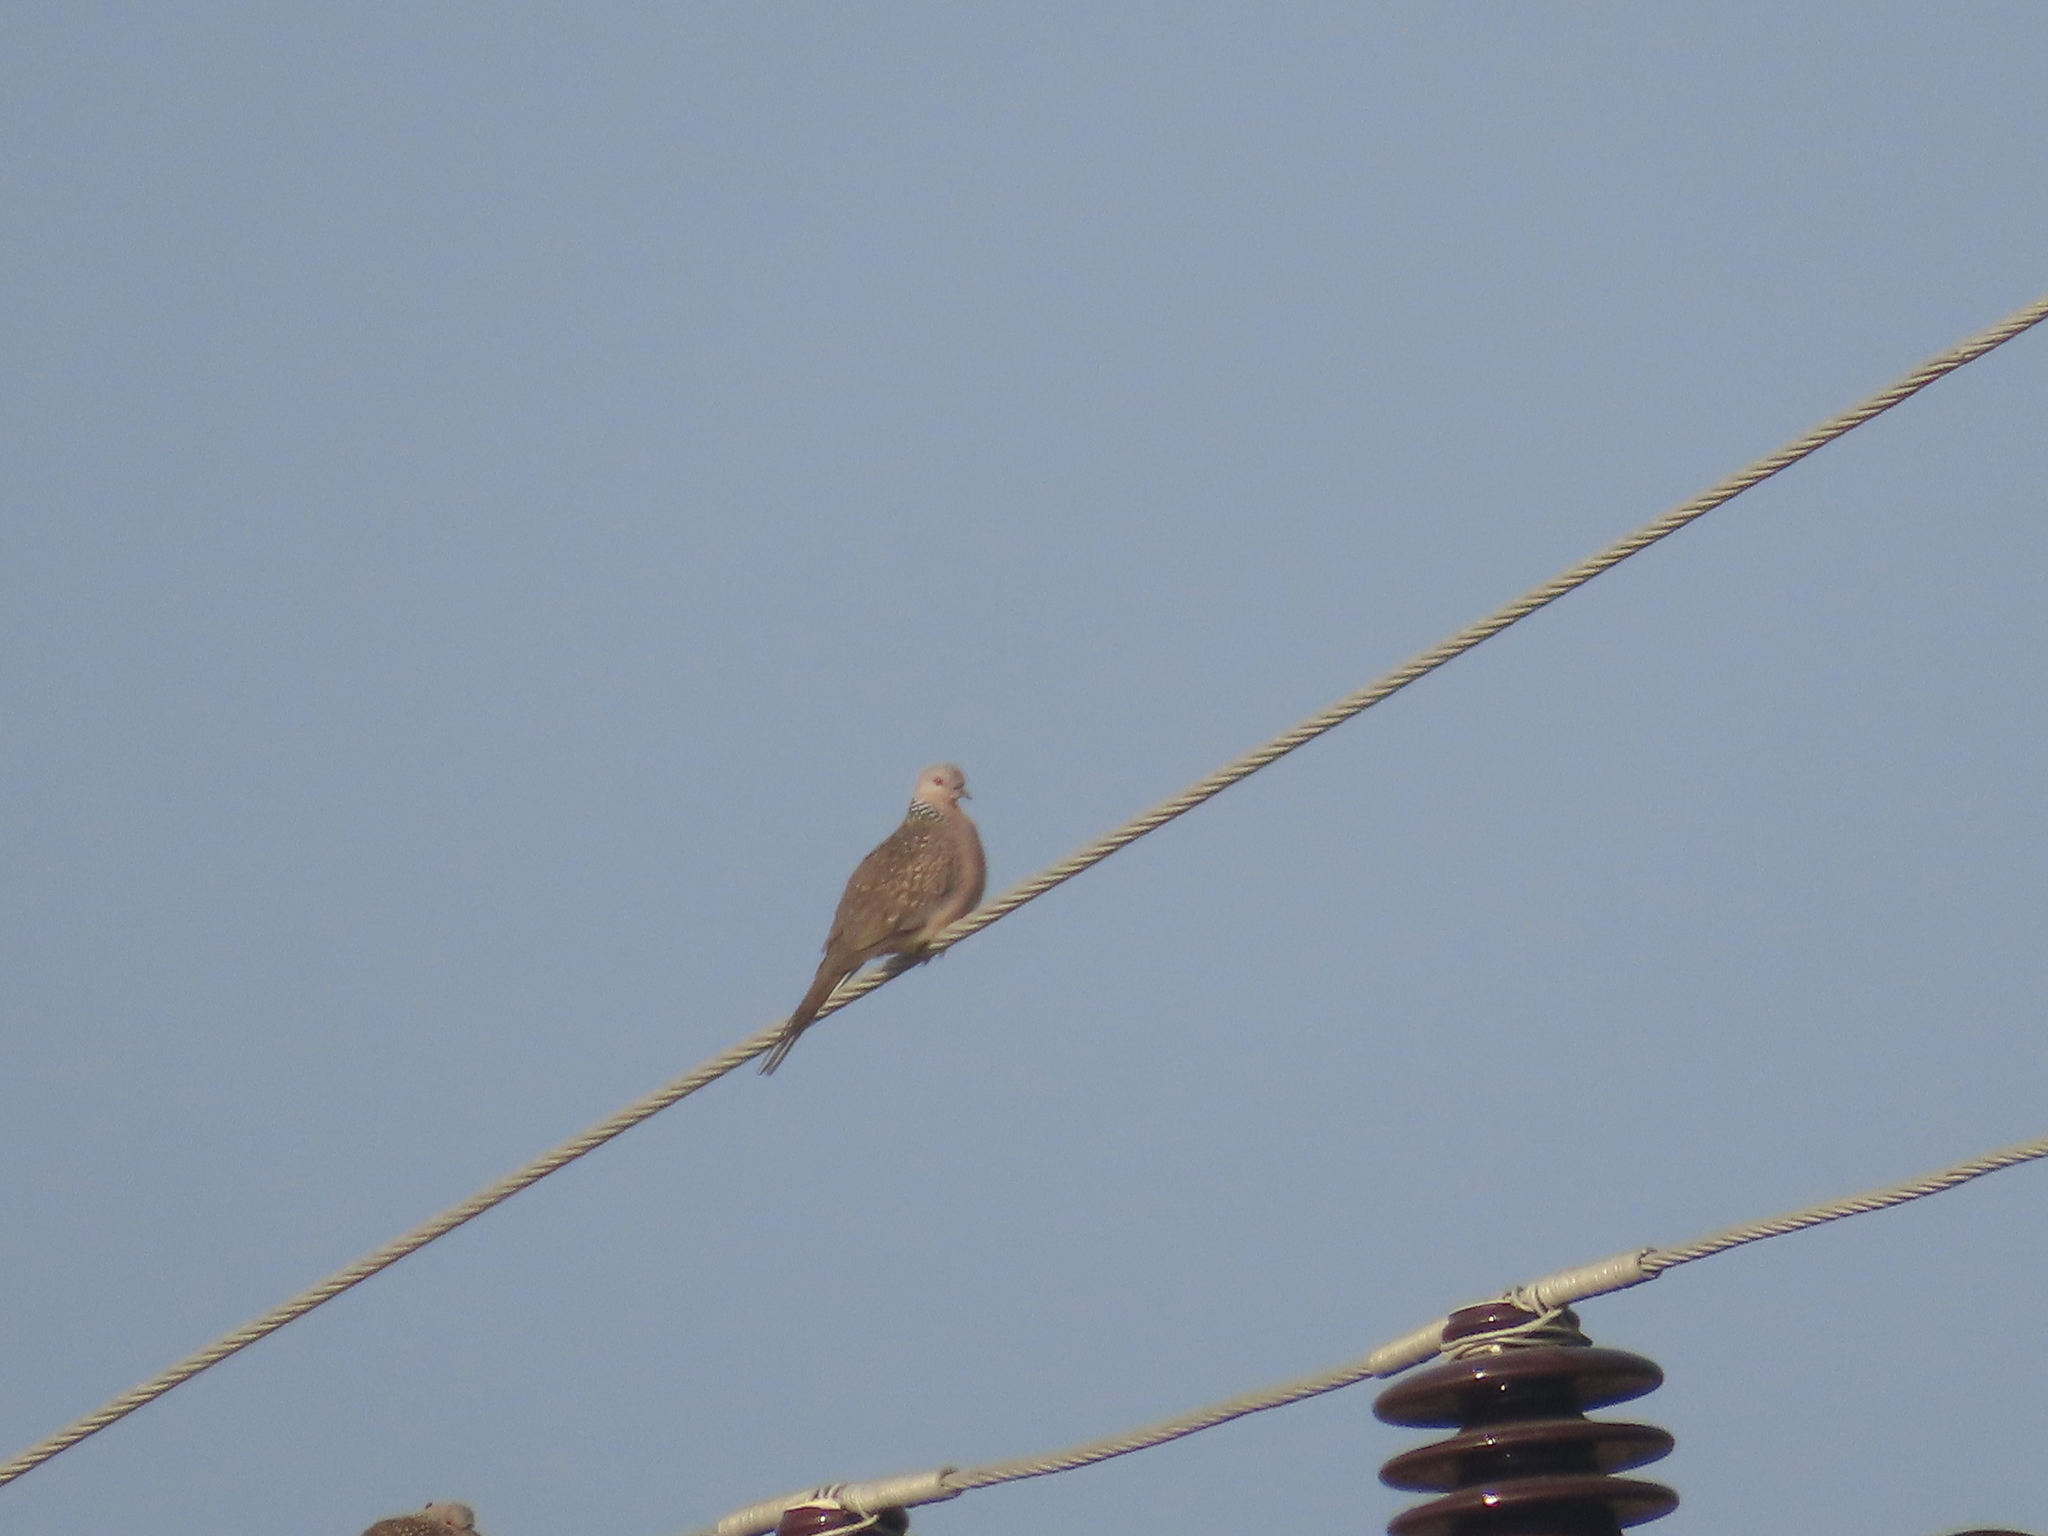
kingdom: Animalia
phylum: Chordata
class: Aves
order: Columbiformes
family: Columbidae
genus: Spilopelia
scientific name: Spilopelia chinensis
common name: Spotted dove
